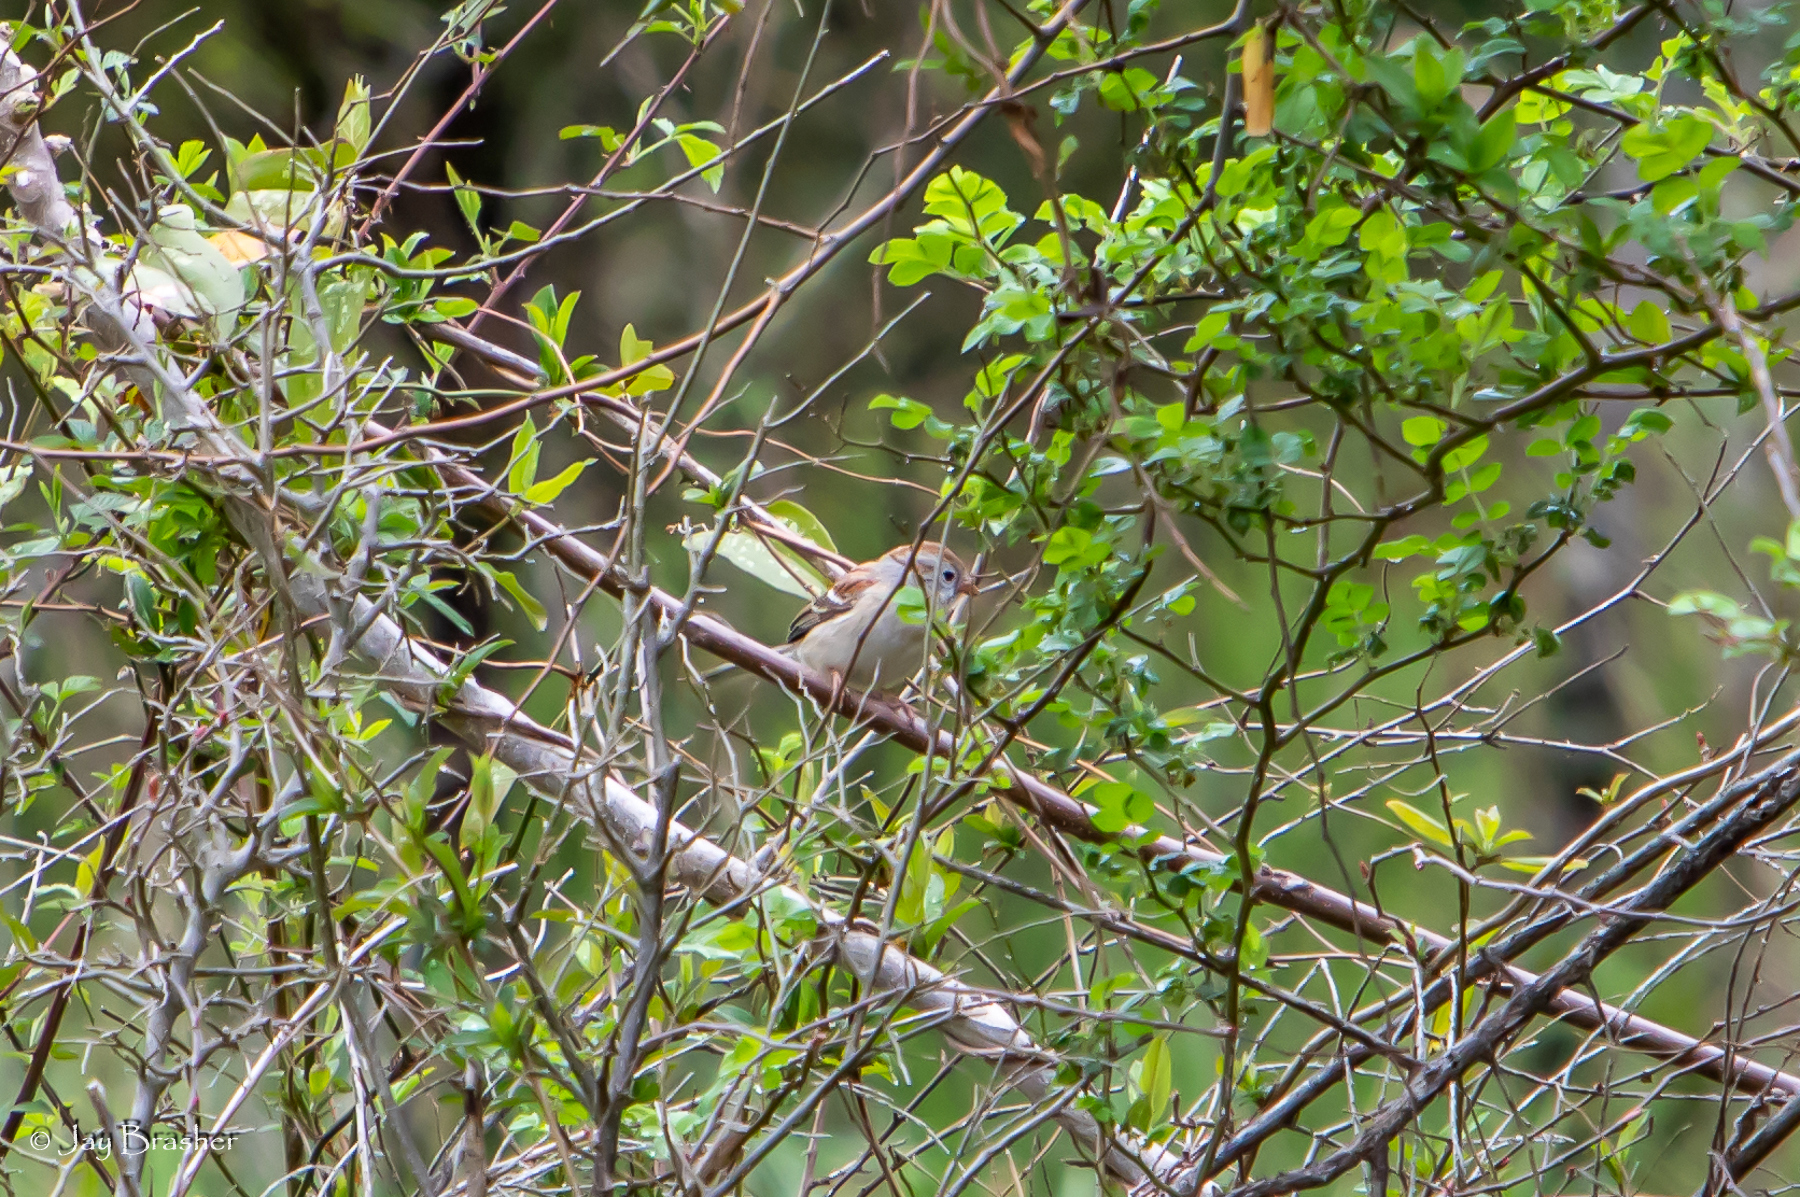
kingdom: Animalia
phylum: Chordata
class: Aves
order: Passeriformes
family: Passerellidae
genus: Spizella
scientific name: Spizella pusilla
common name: Field sparrow
